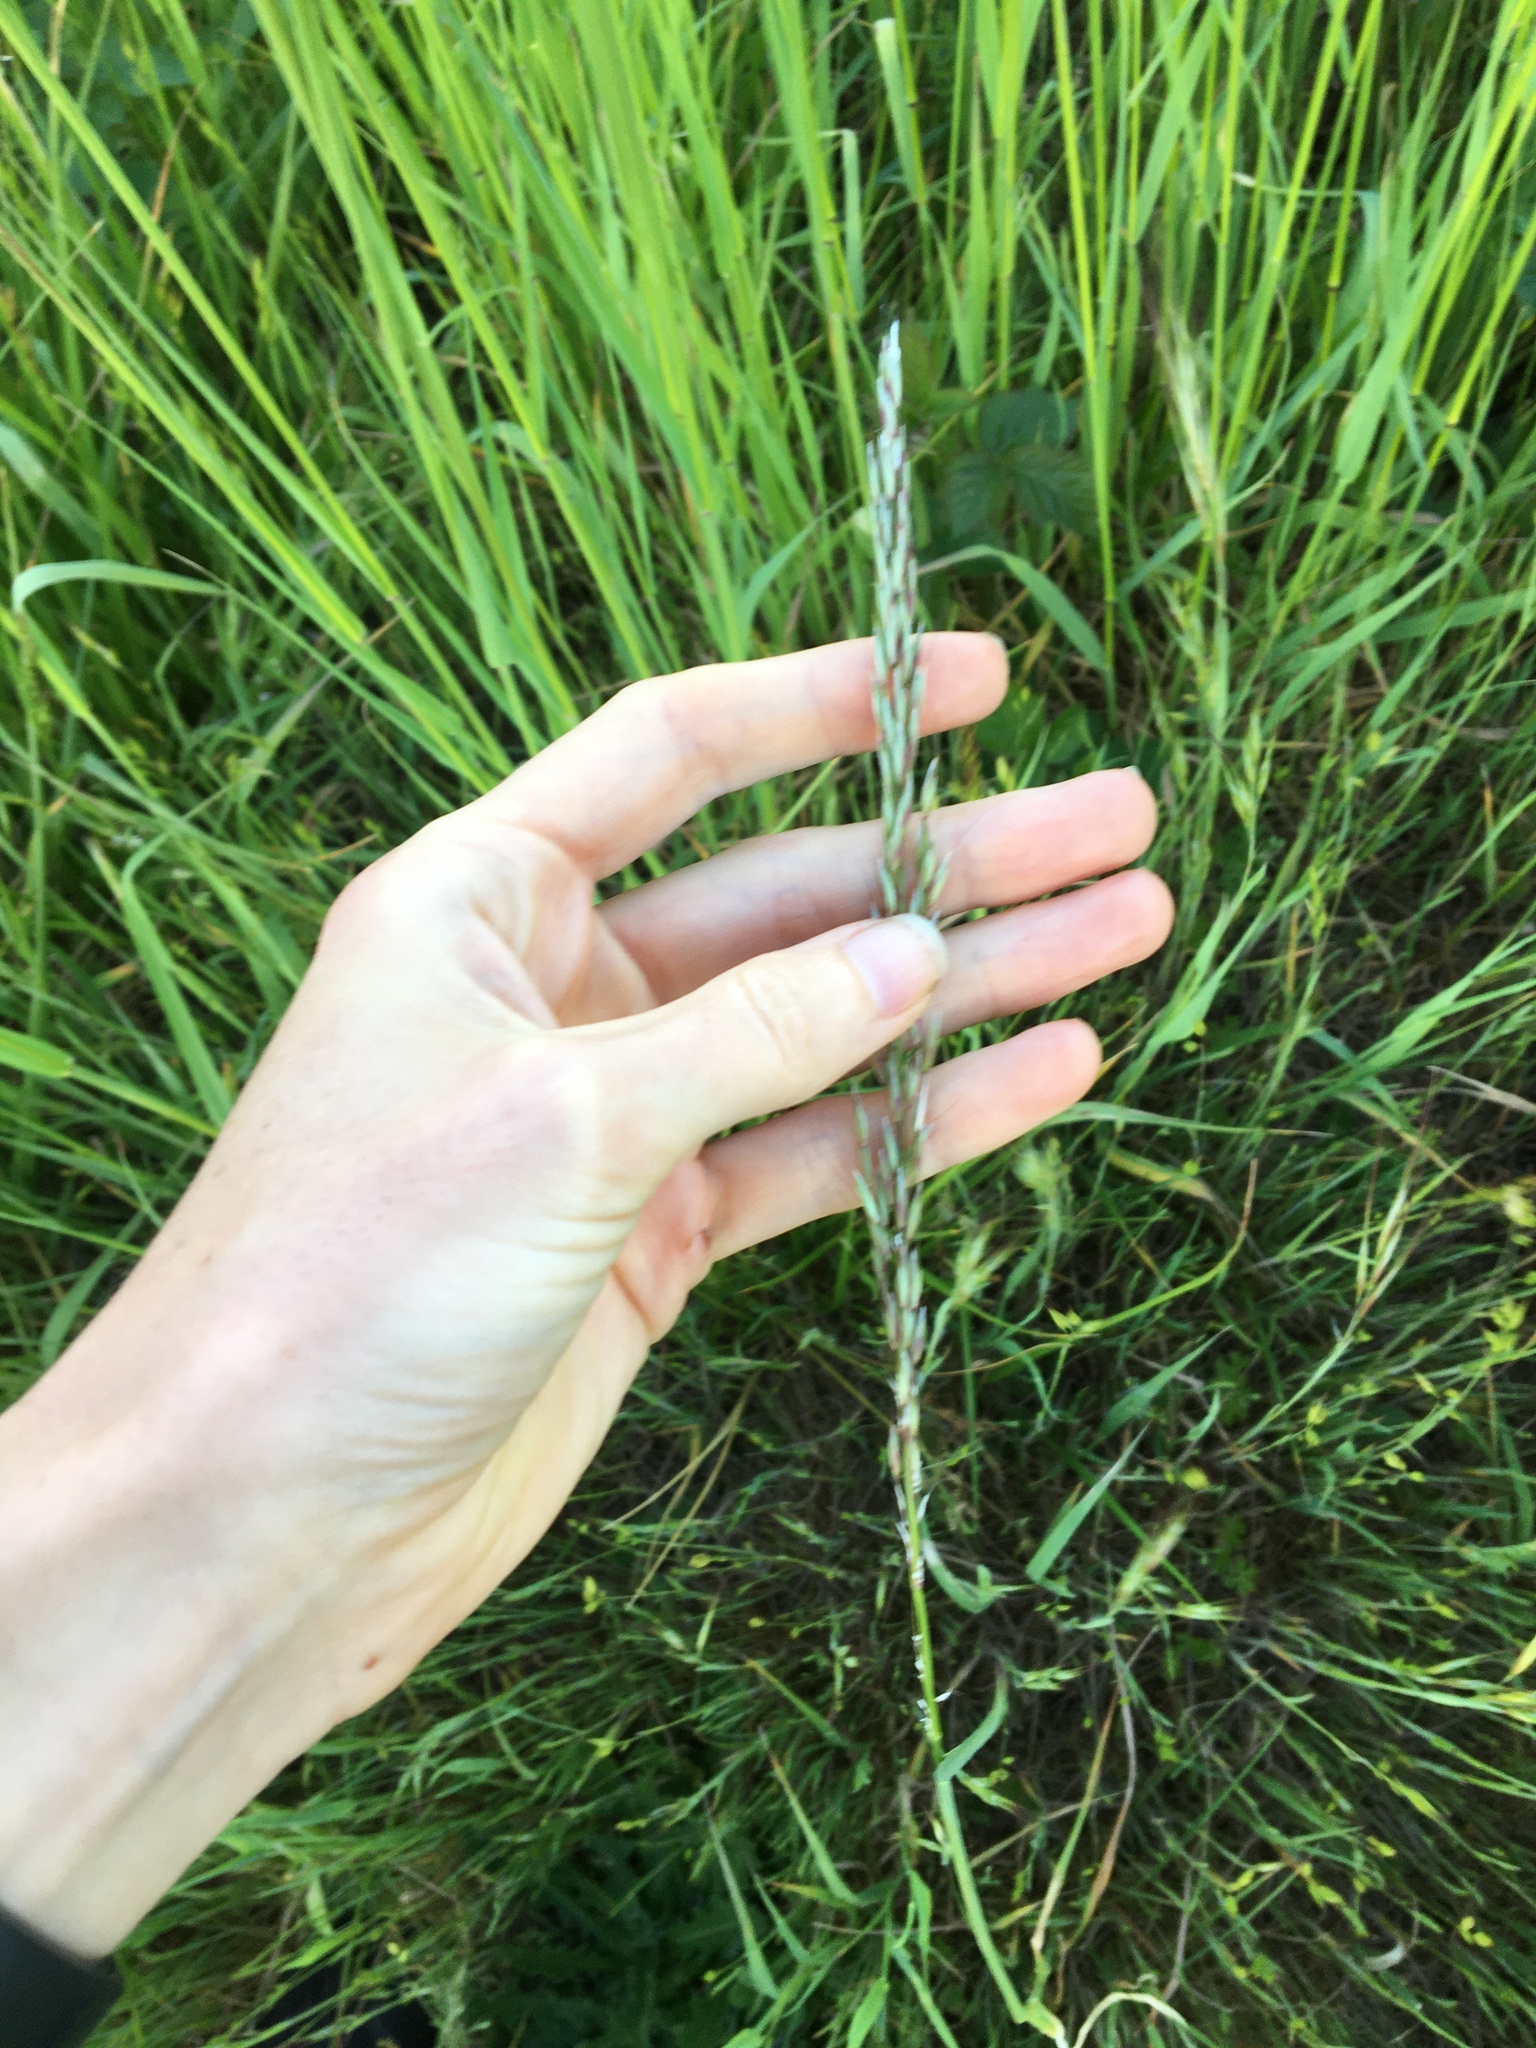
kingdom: Plantae
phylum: Tracheophyta
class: Liliopsida
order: Poales
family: Poaceae
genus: Arrhenatherum
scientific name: Arrhenatherum elatius
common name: Tall oatgrass
